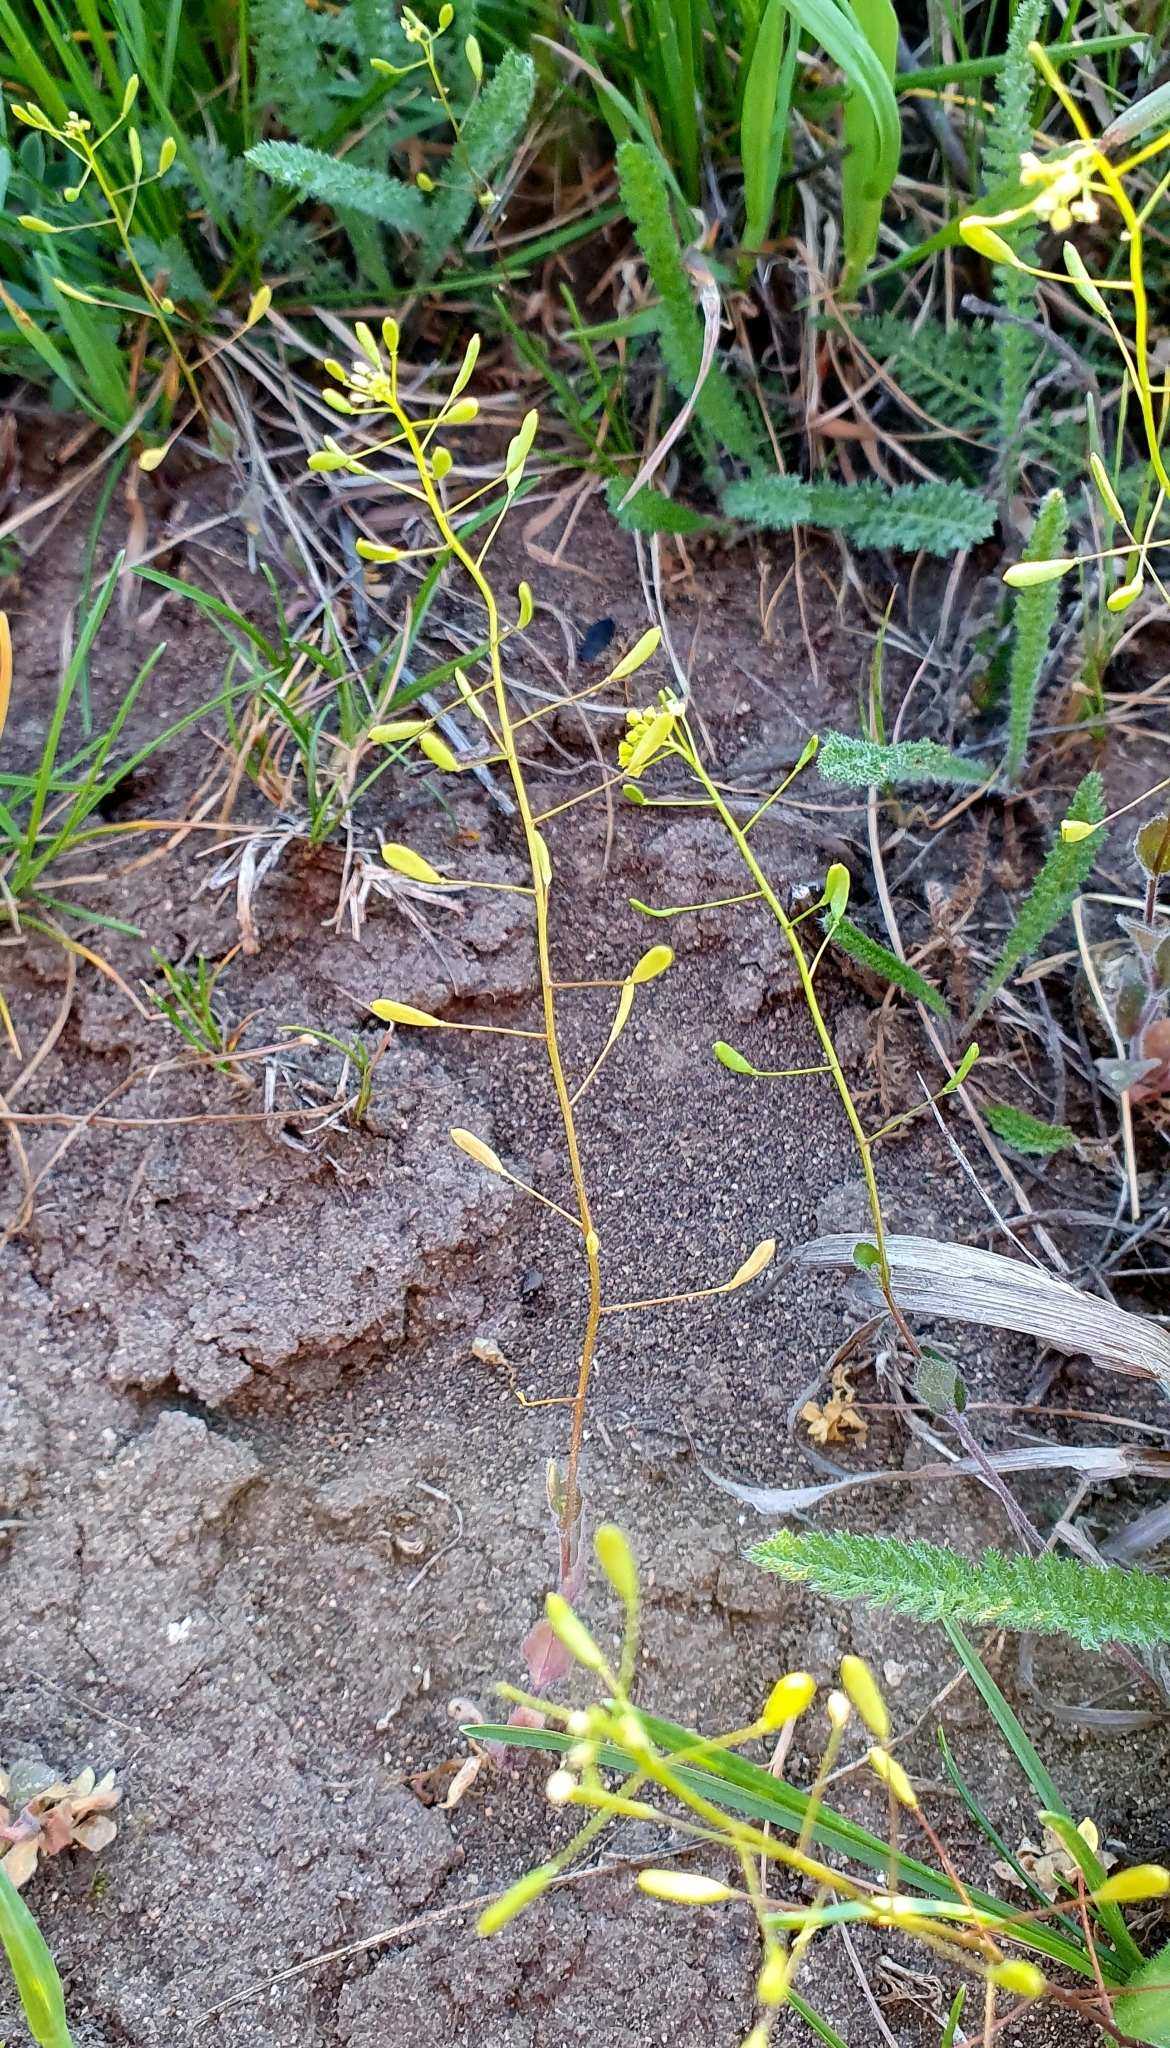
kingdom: Plantae
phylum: Tracheophyta
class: Magnoliopsida
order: Brassicales
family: Brassicaceae
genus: Draba
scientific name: Draba nemorosa
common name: Wood whitlow-grass
